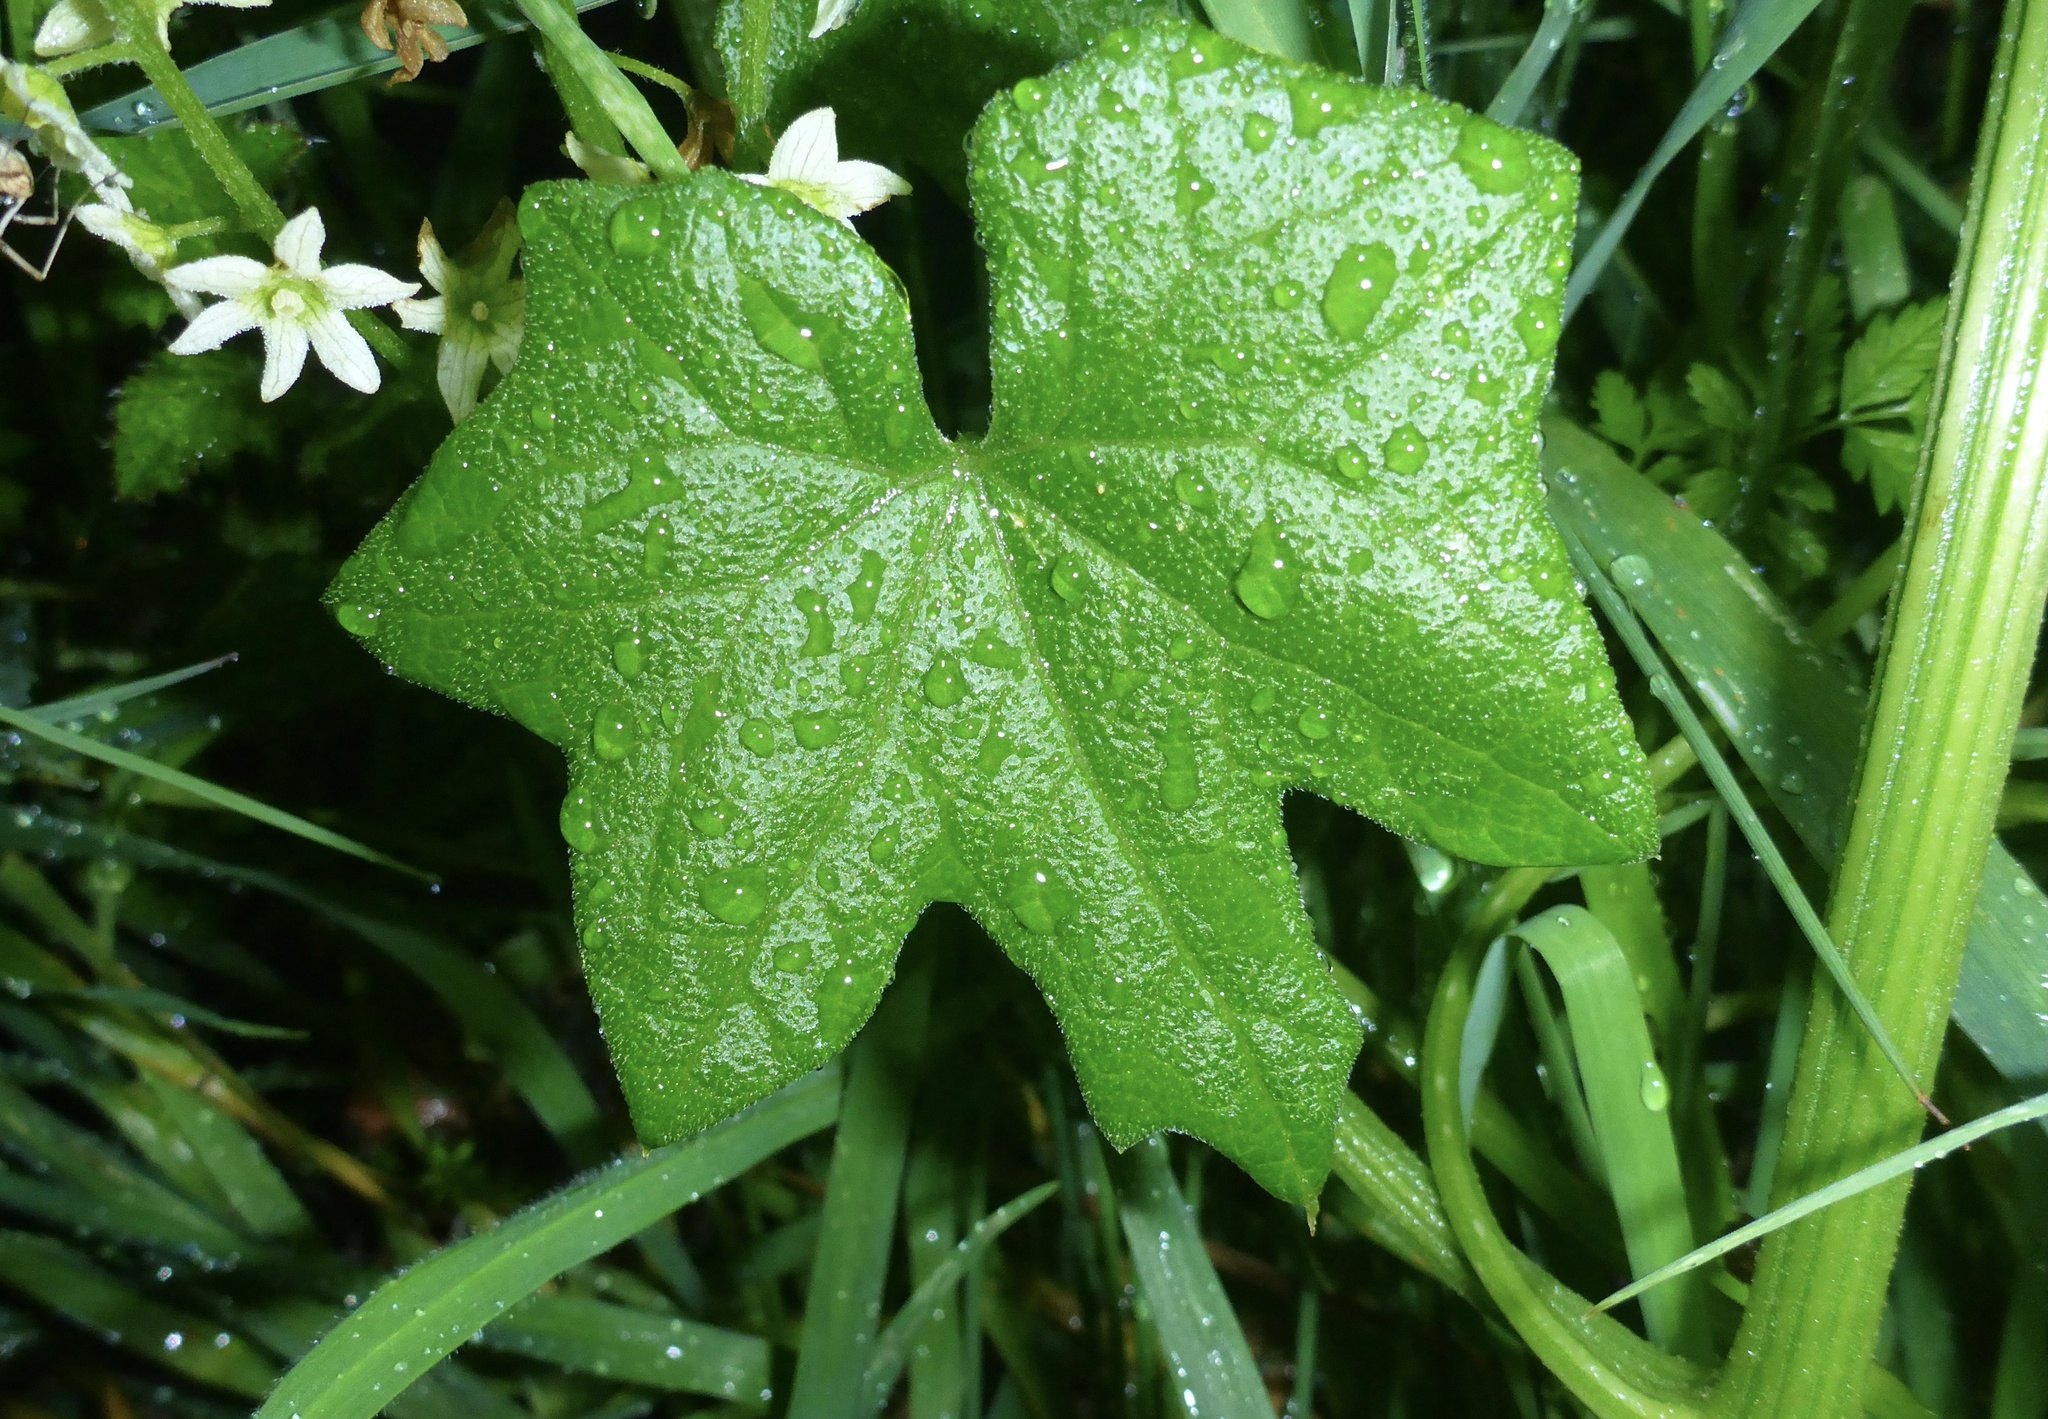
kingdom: Plantae
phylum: Tracheophyta
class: Magnoliopsida
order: Cucurbitales
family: Cucurbitaceae
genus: Marah
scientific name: Marah fabacea
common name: California manroot
